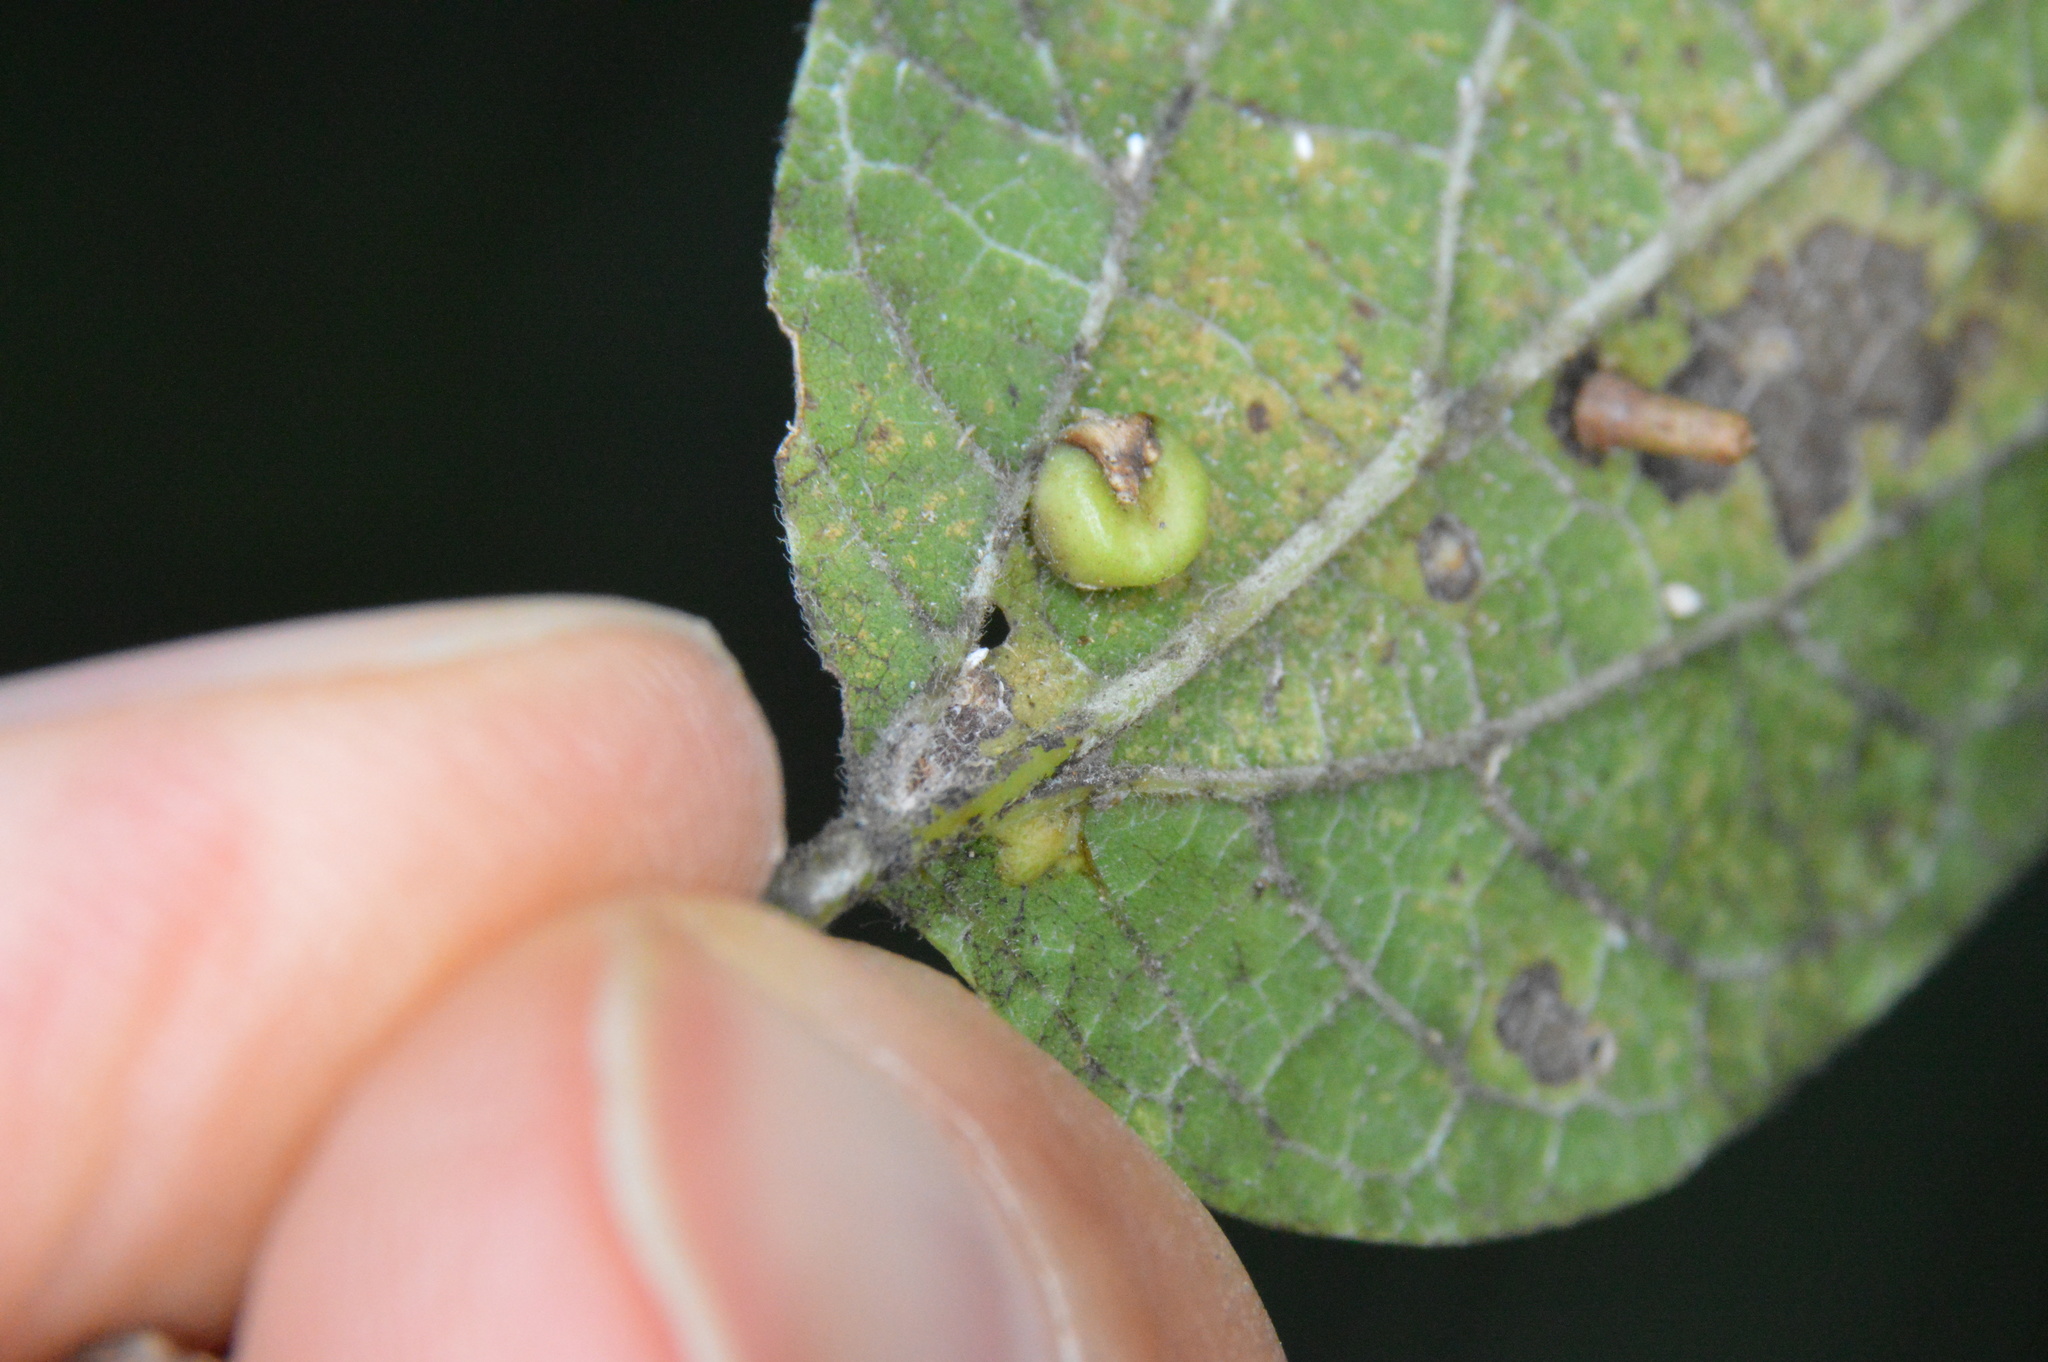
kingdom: Animalia
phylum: Arthropoda
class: Insecta
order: Hemiptera
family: Aphalaridae
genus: Pachypsylla
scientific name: Pachypsylla celtidismamma
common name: Hackberry nipplegall psyllid
